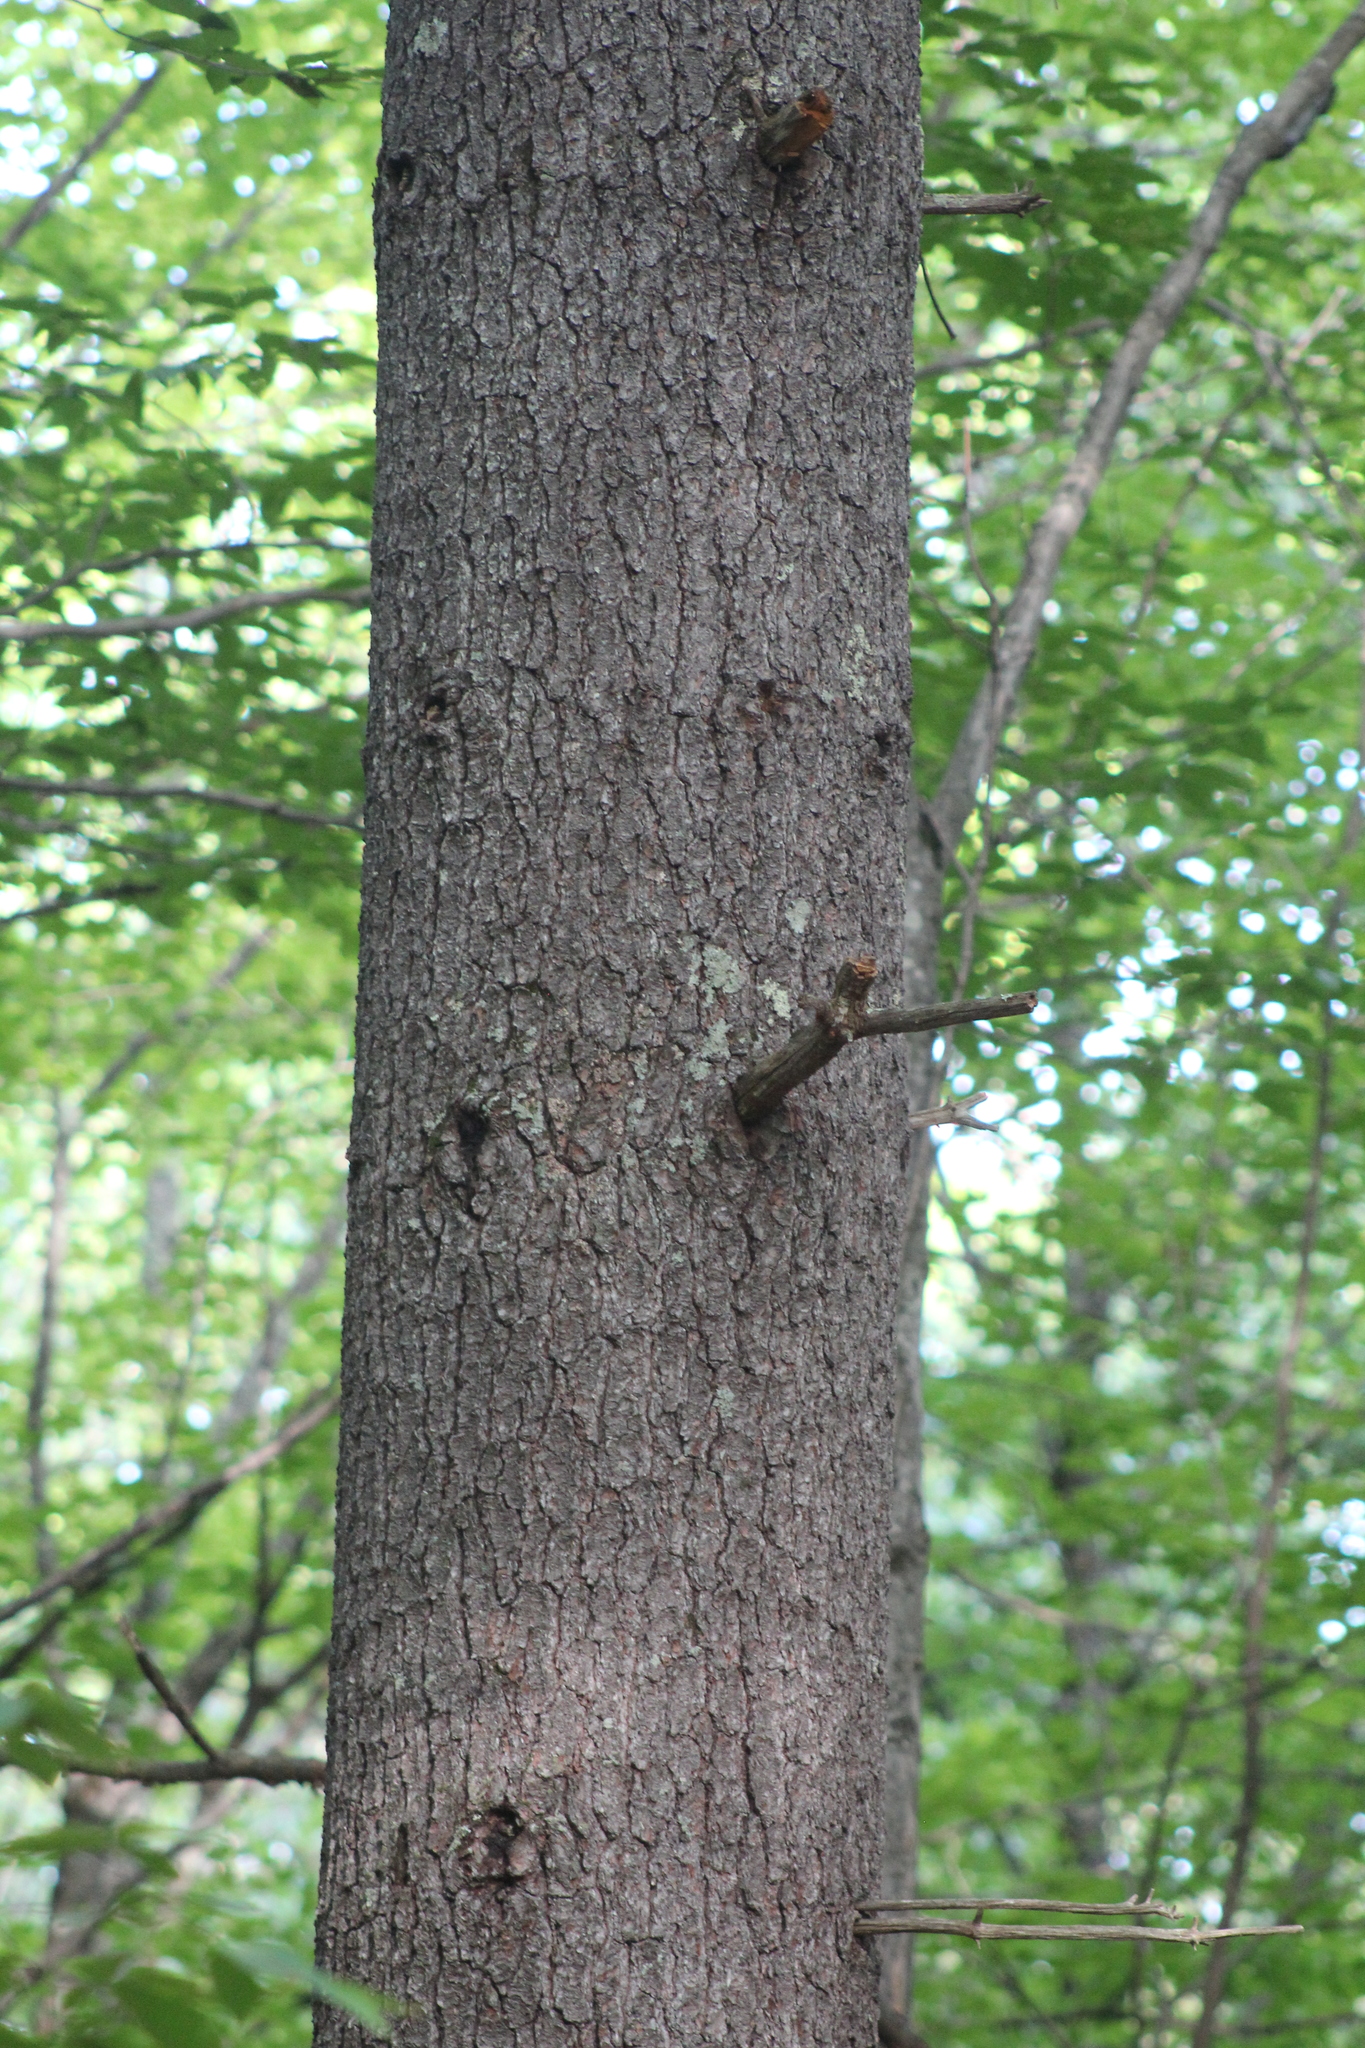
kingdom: Plantae
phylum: Tracheophyta
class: Pinopsida
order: Pinales
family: Pinaceae
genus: Pinus
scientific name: Pinus strobus
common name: Weymouth pine
